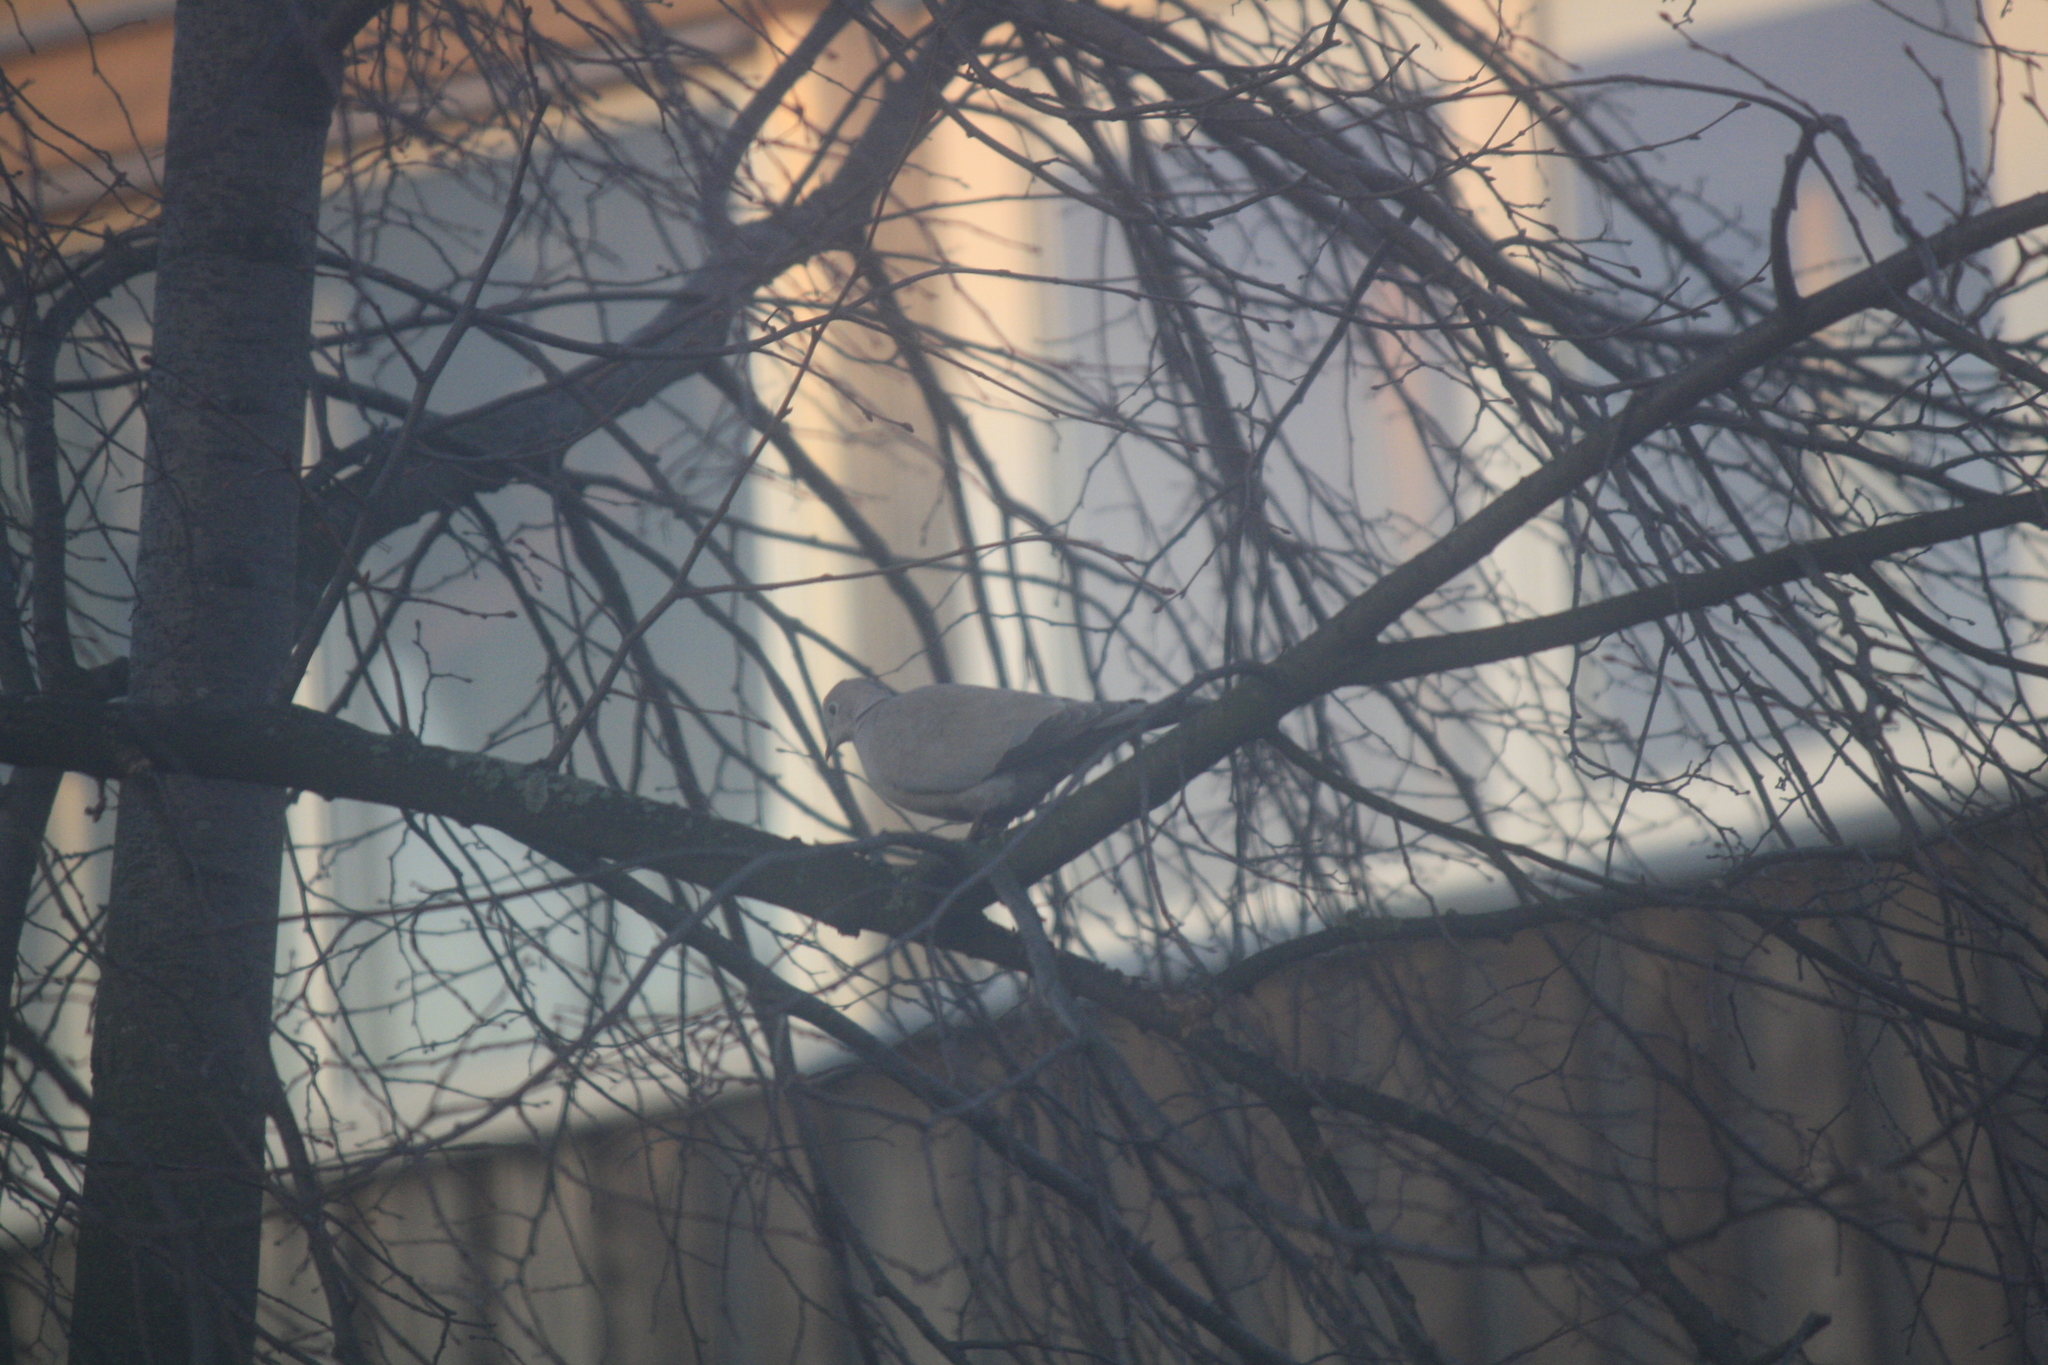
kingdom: Animalia
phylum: Chordata
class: Aves
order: Columbiformes
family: Columbidae
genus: Streptopelia
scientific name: Streptopelia decaocto
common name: Eurasian collared dove
